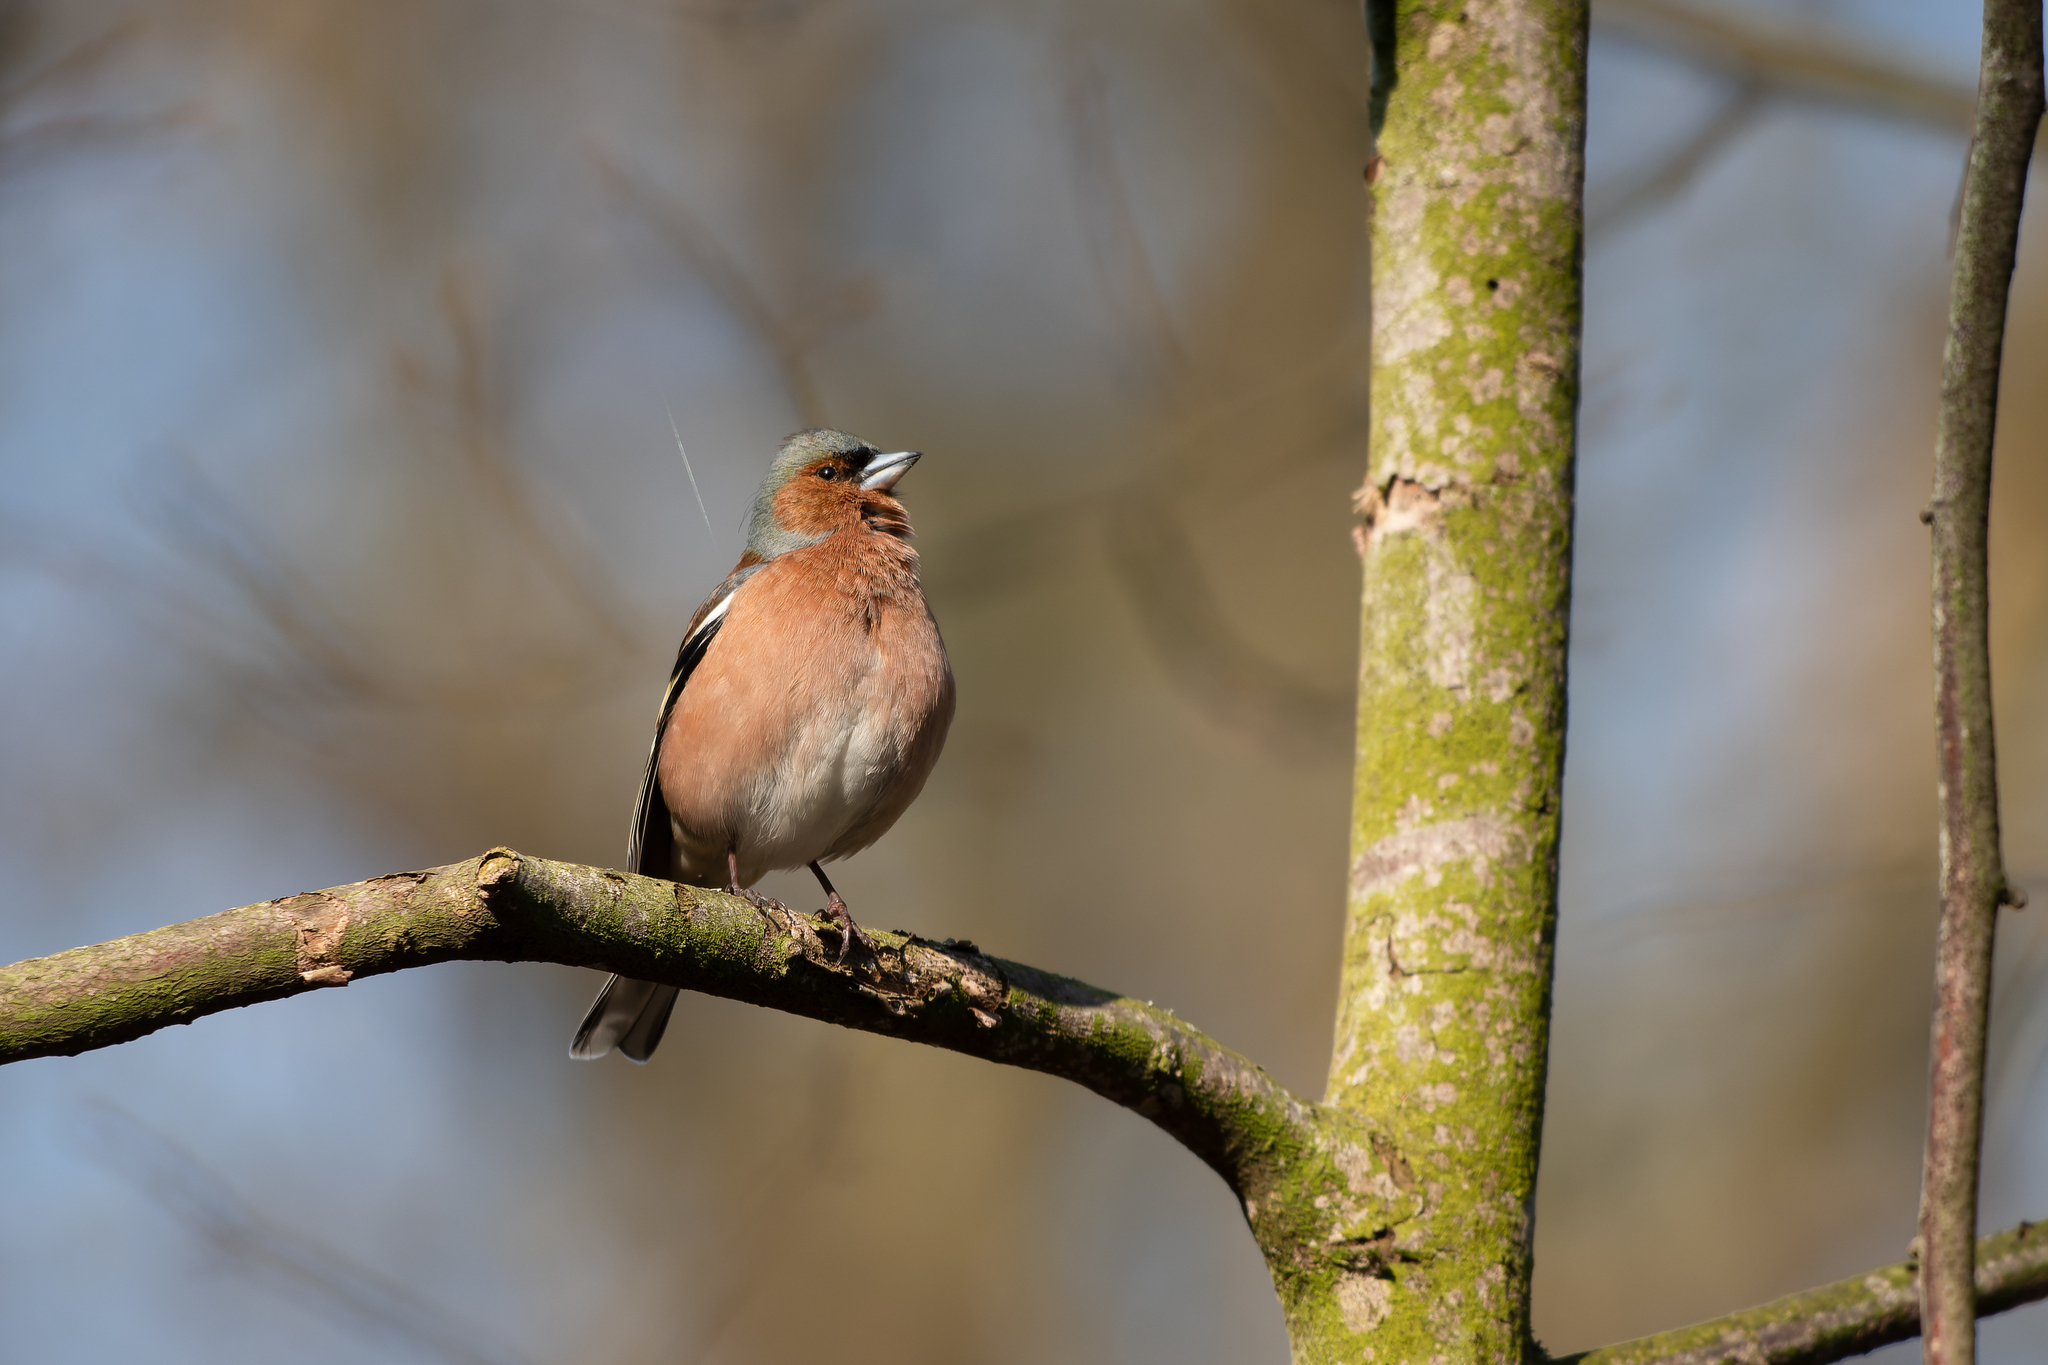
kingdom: Animalia
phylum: Chordata
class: Aves
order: Passeriformes
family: Fringillidae
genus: Fringilla
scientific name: Fringilla coelebs
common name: Common chaffinch
